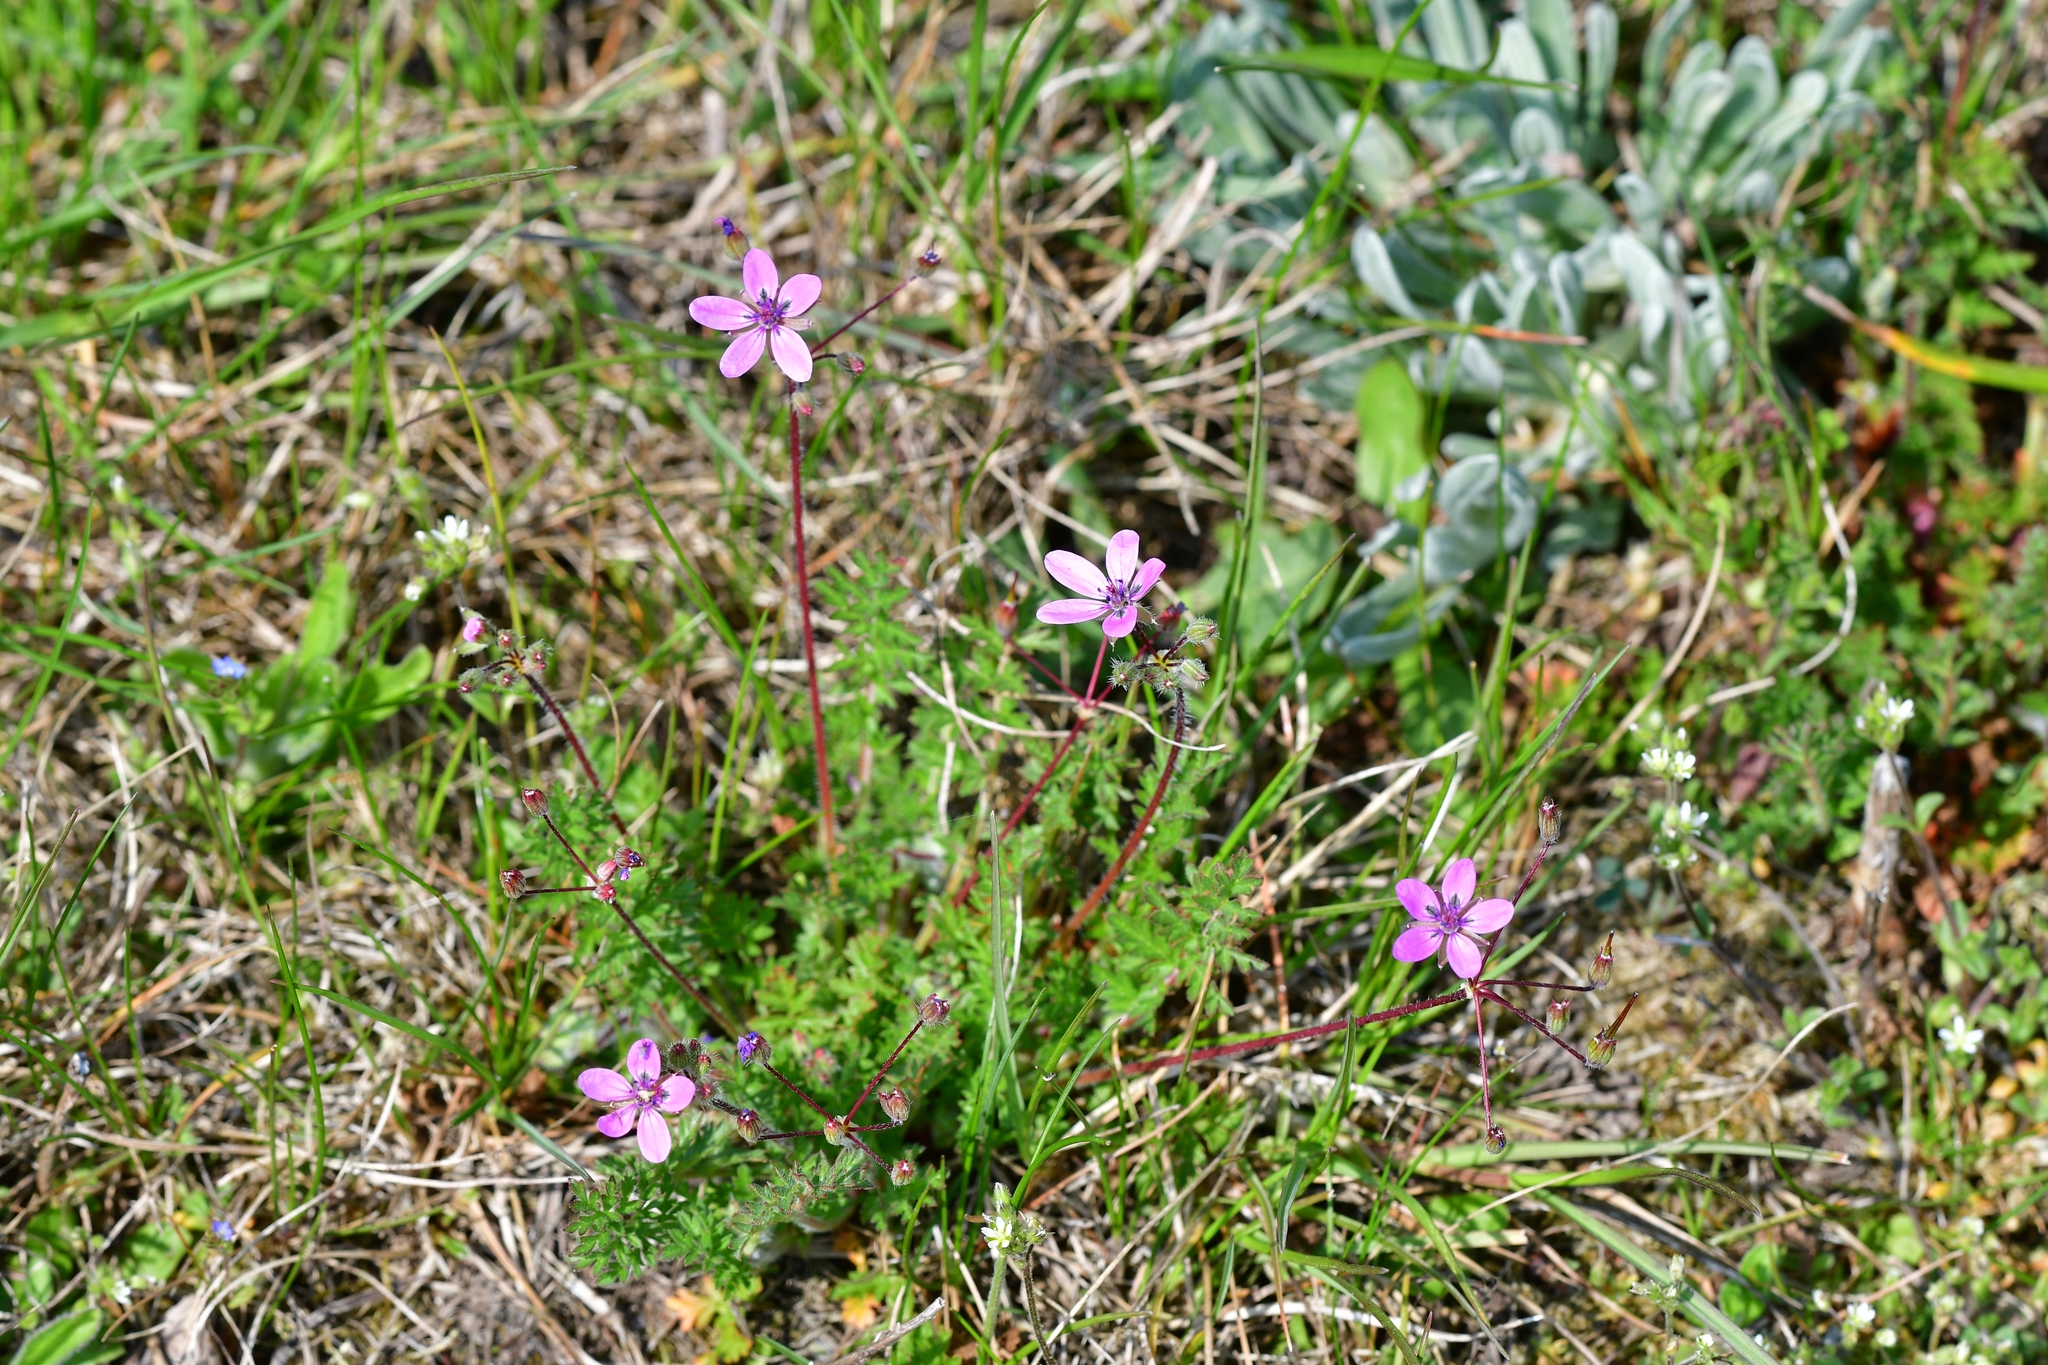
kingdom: Plantae
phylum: Tracheophyta
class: Magnoliopsida
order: Geraniales
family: Geraniaceae
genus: Erodium
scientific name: Erodium cicutarium
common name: Common stork's-bill
